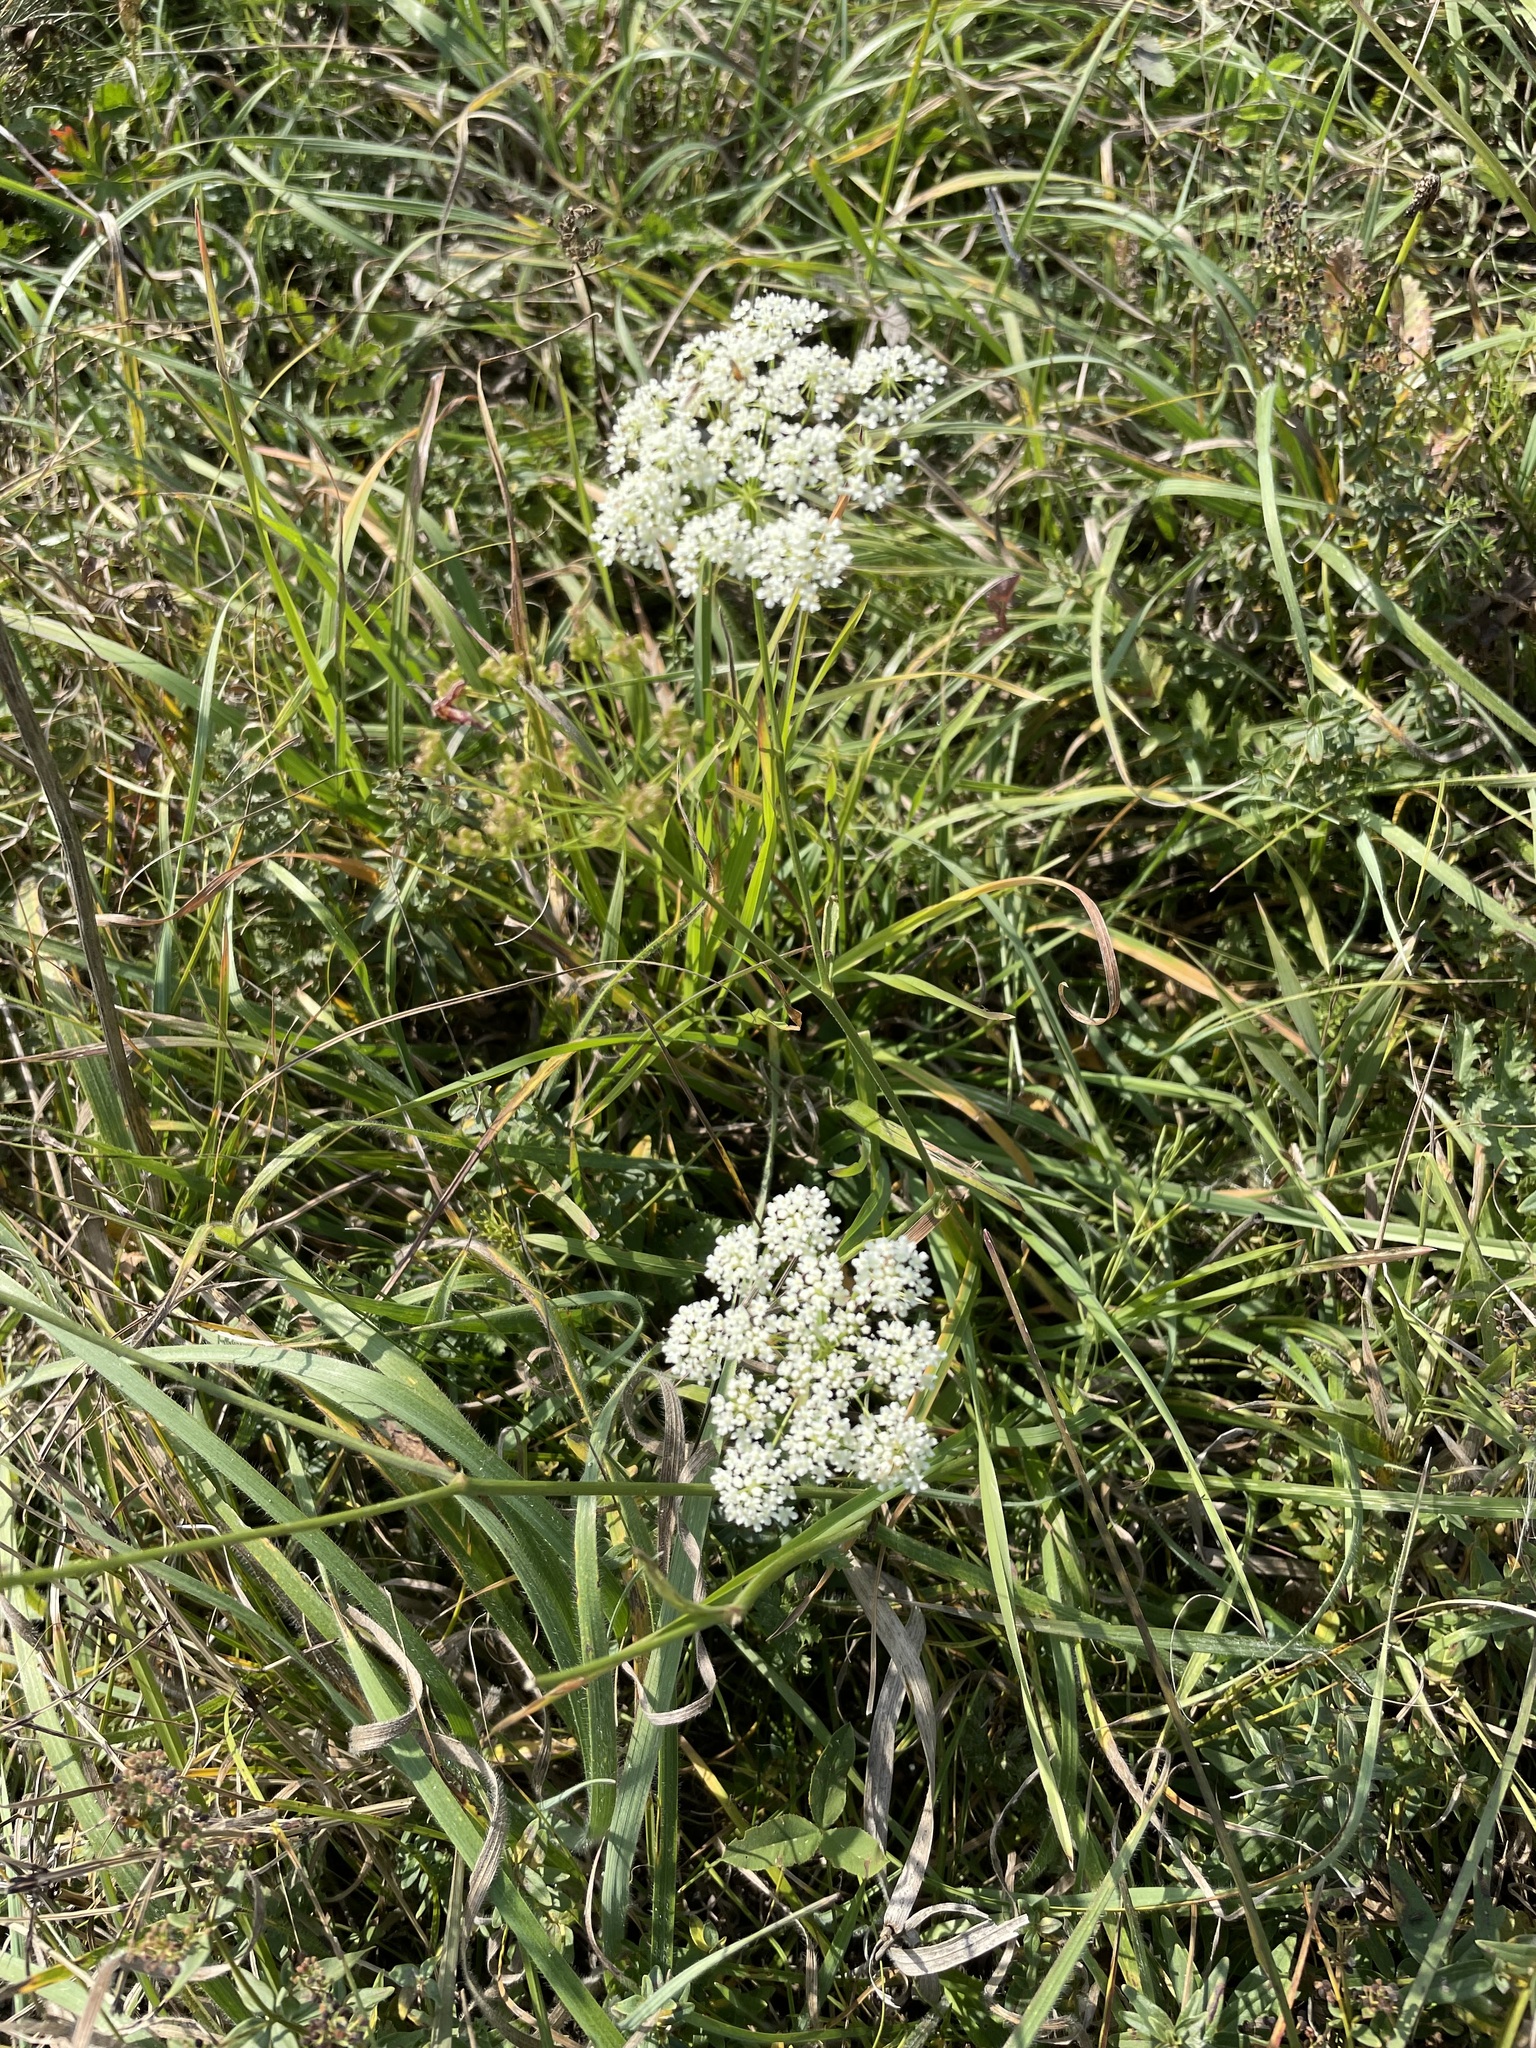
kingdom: Plantae
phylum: Tracheophyta
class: Magnoliopsida
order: Apiales
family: Apiaceae
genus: Pimpinella
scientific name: Pimpinella saxifraga
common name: Burnet-saxifrage
